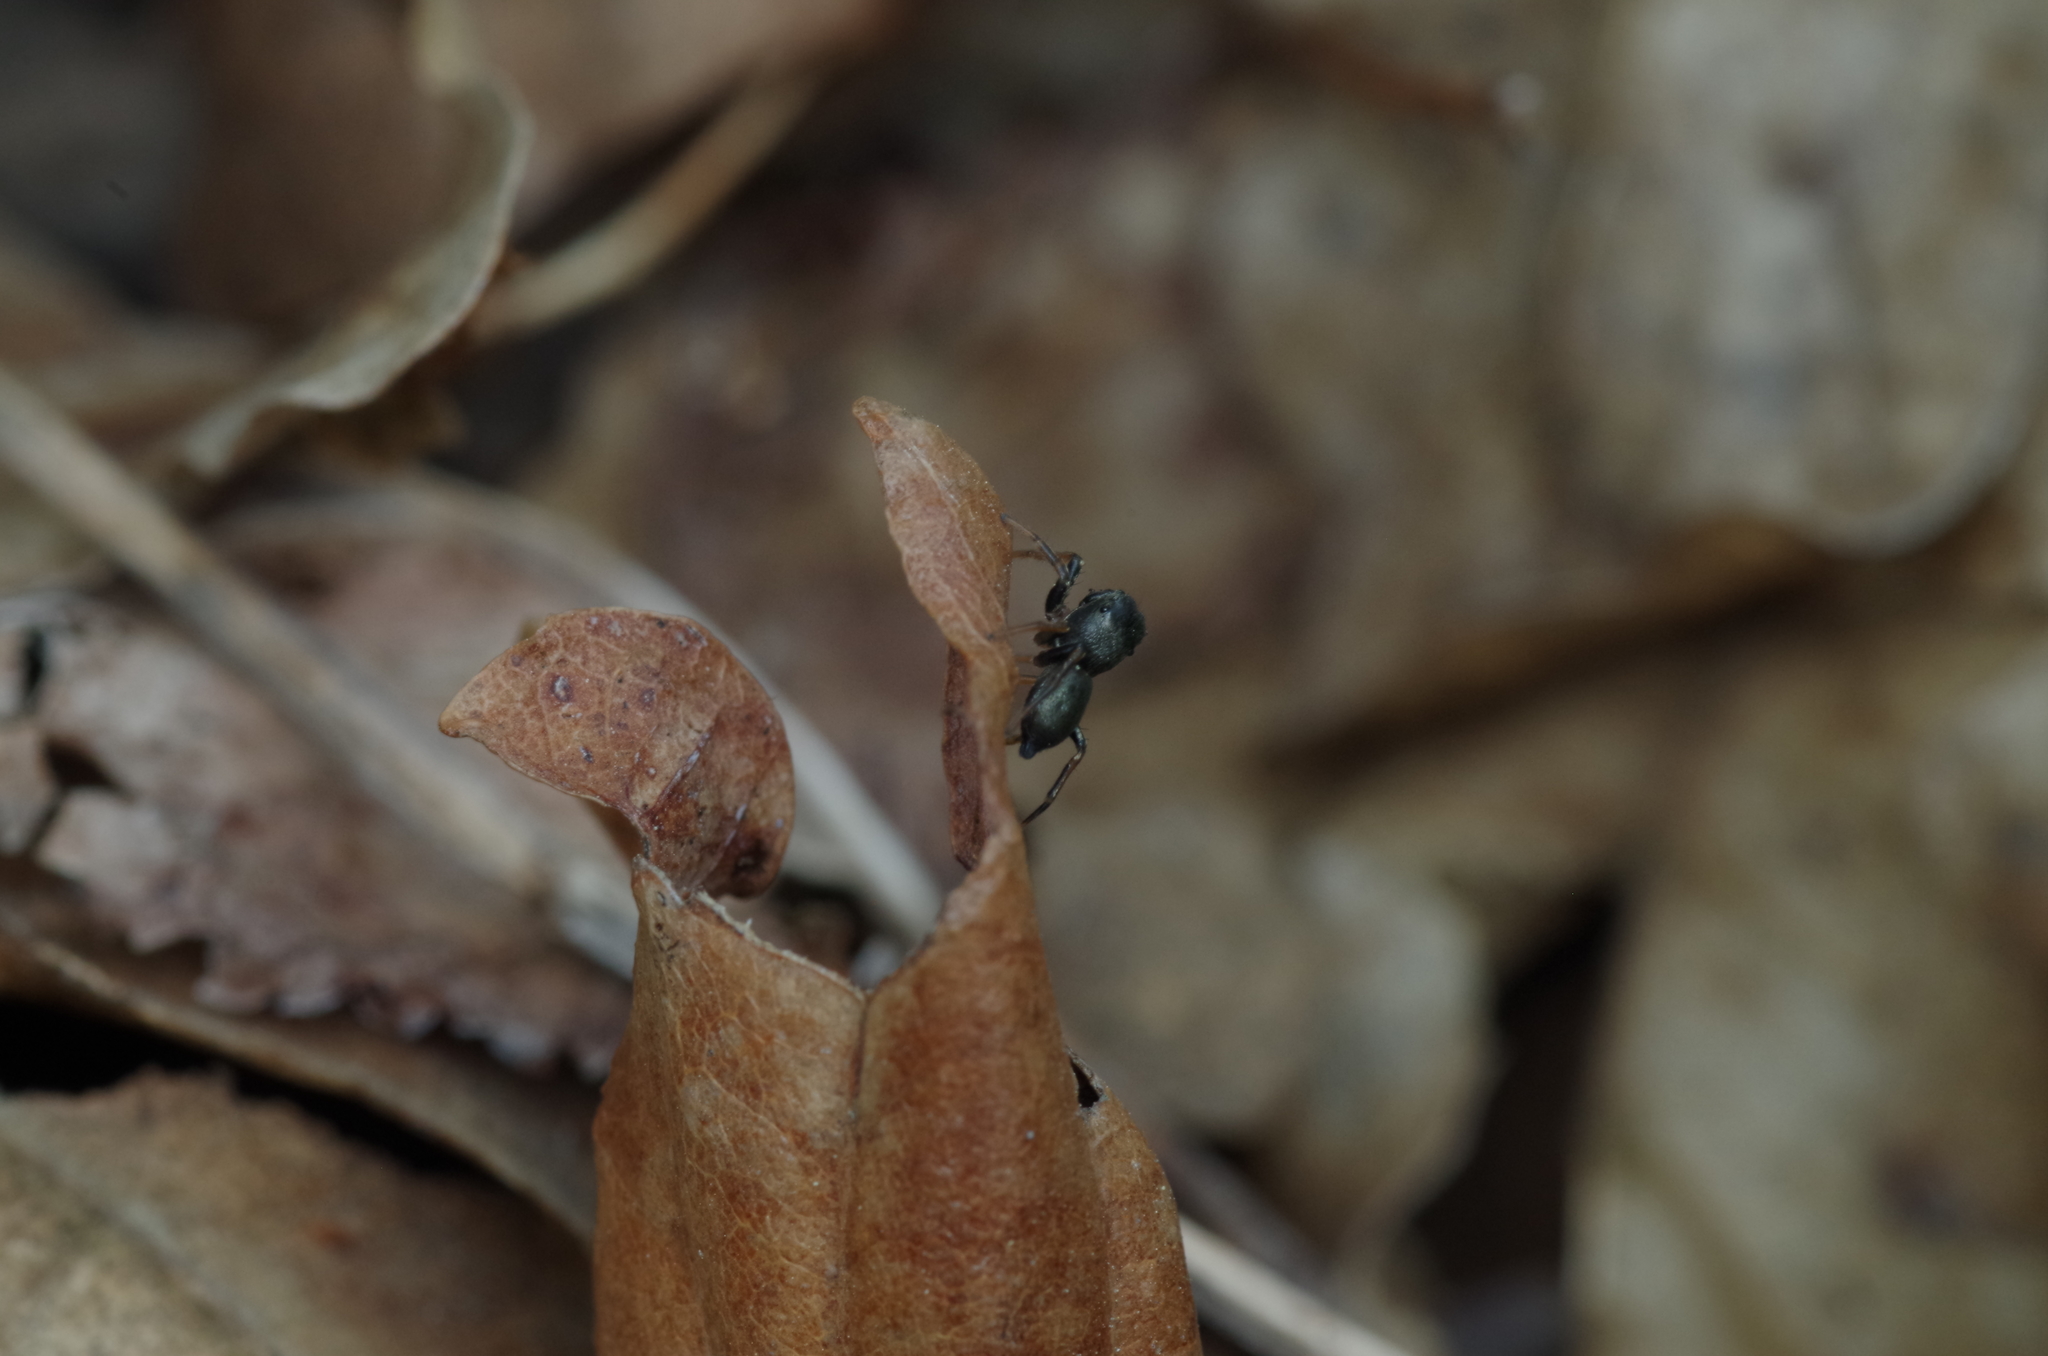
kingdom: Animalia
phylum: Arthropoda
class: Arachnida
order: Araneae
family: Salticidae
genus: Heliophanus
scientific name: Heliophanus
